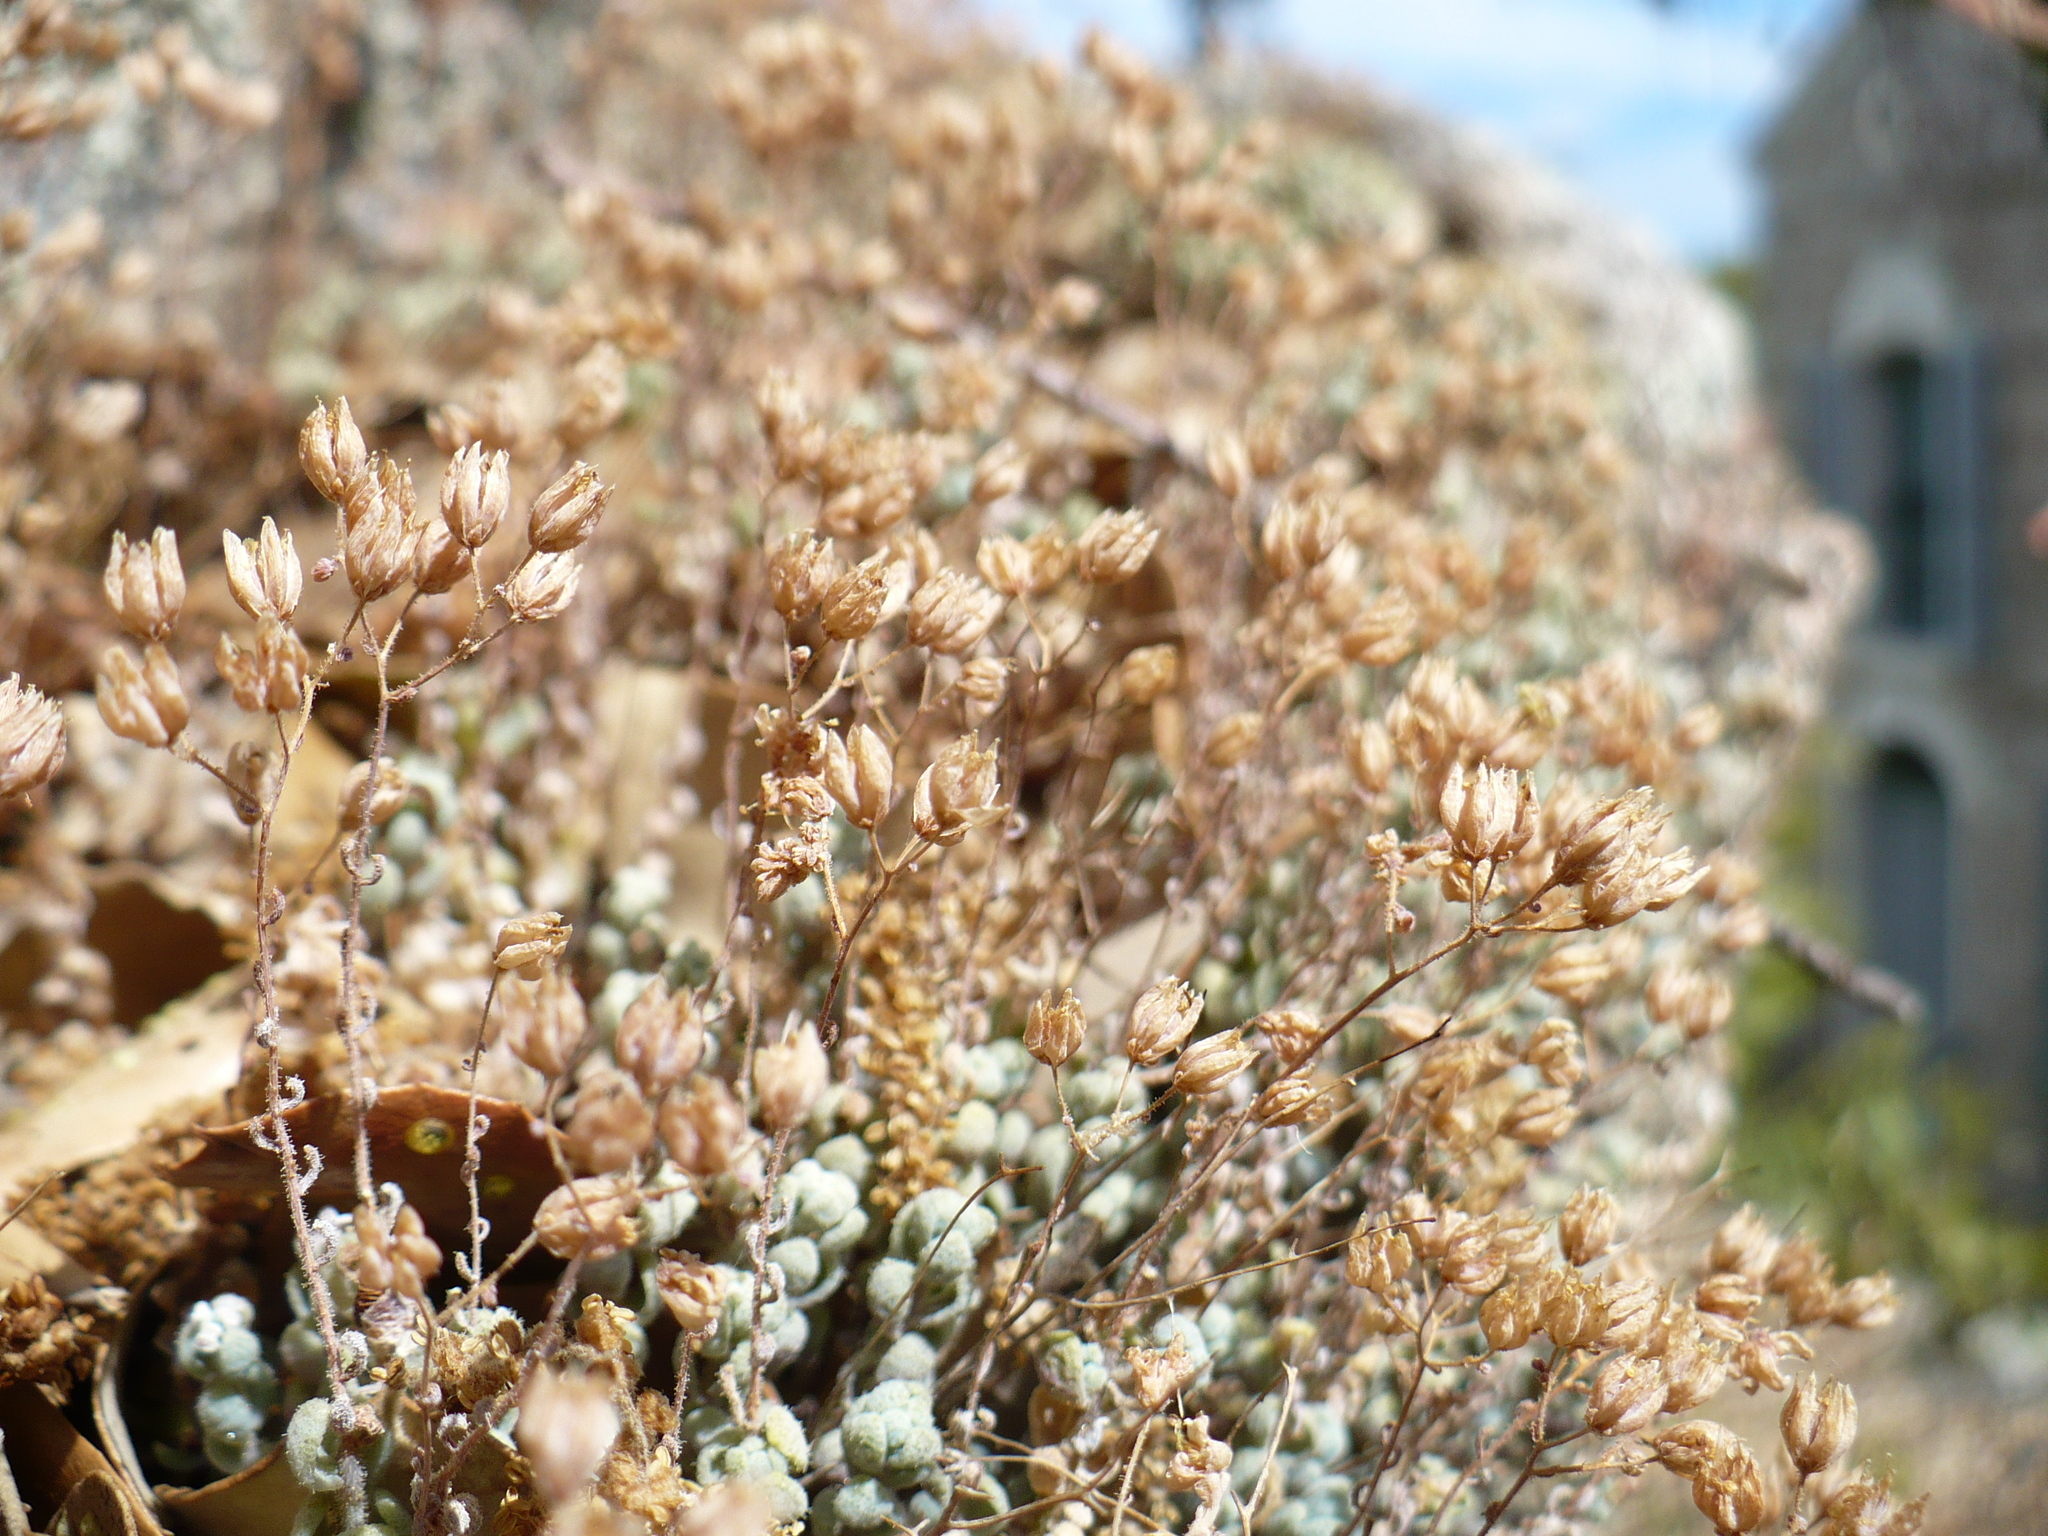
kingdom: Plantae
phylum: Tracheophyta
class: Magnoliopsida
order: Saxifragales
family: Crassulaceae
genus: Sedum
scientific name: Sedum dasyphyllum
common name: Thick-leaf stonecrop
